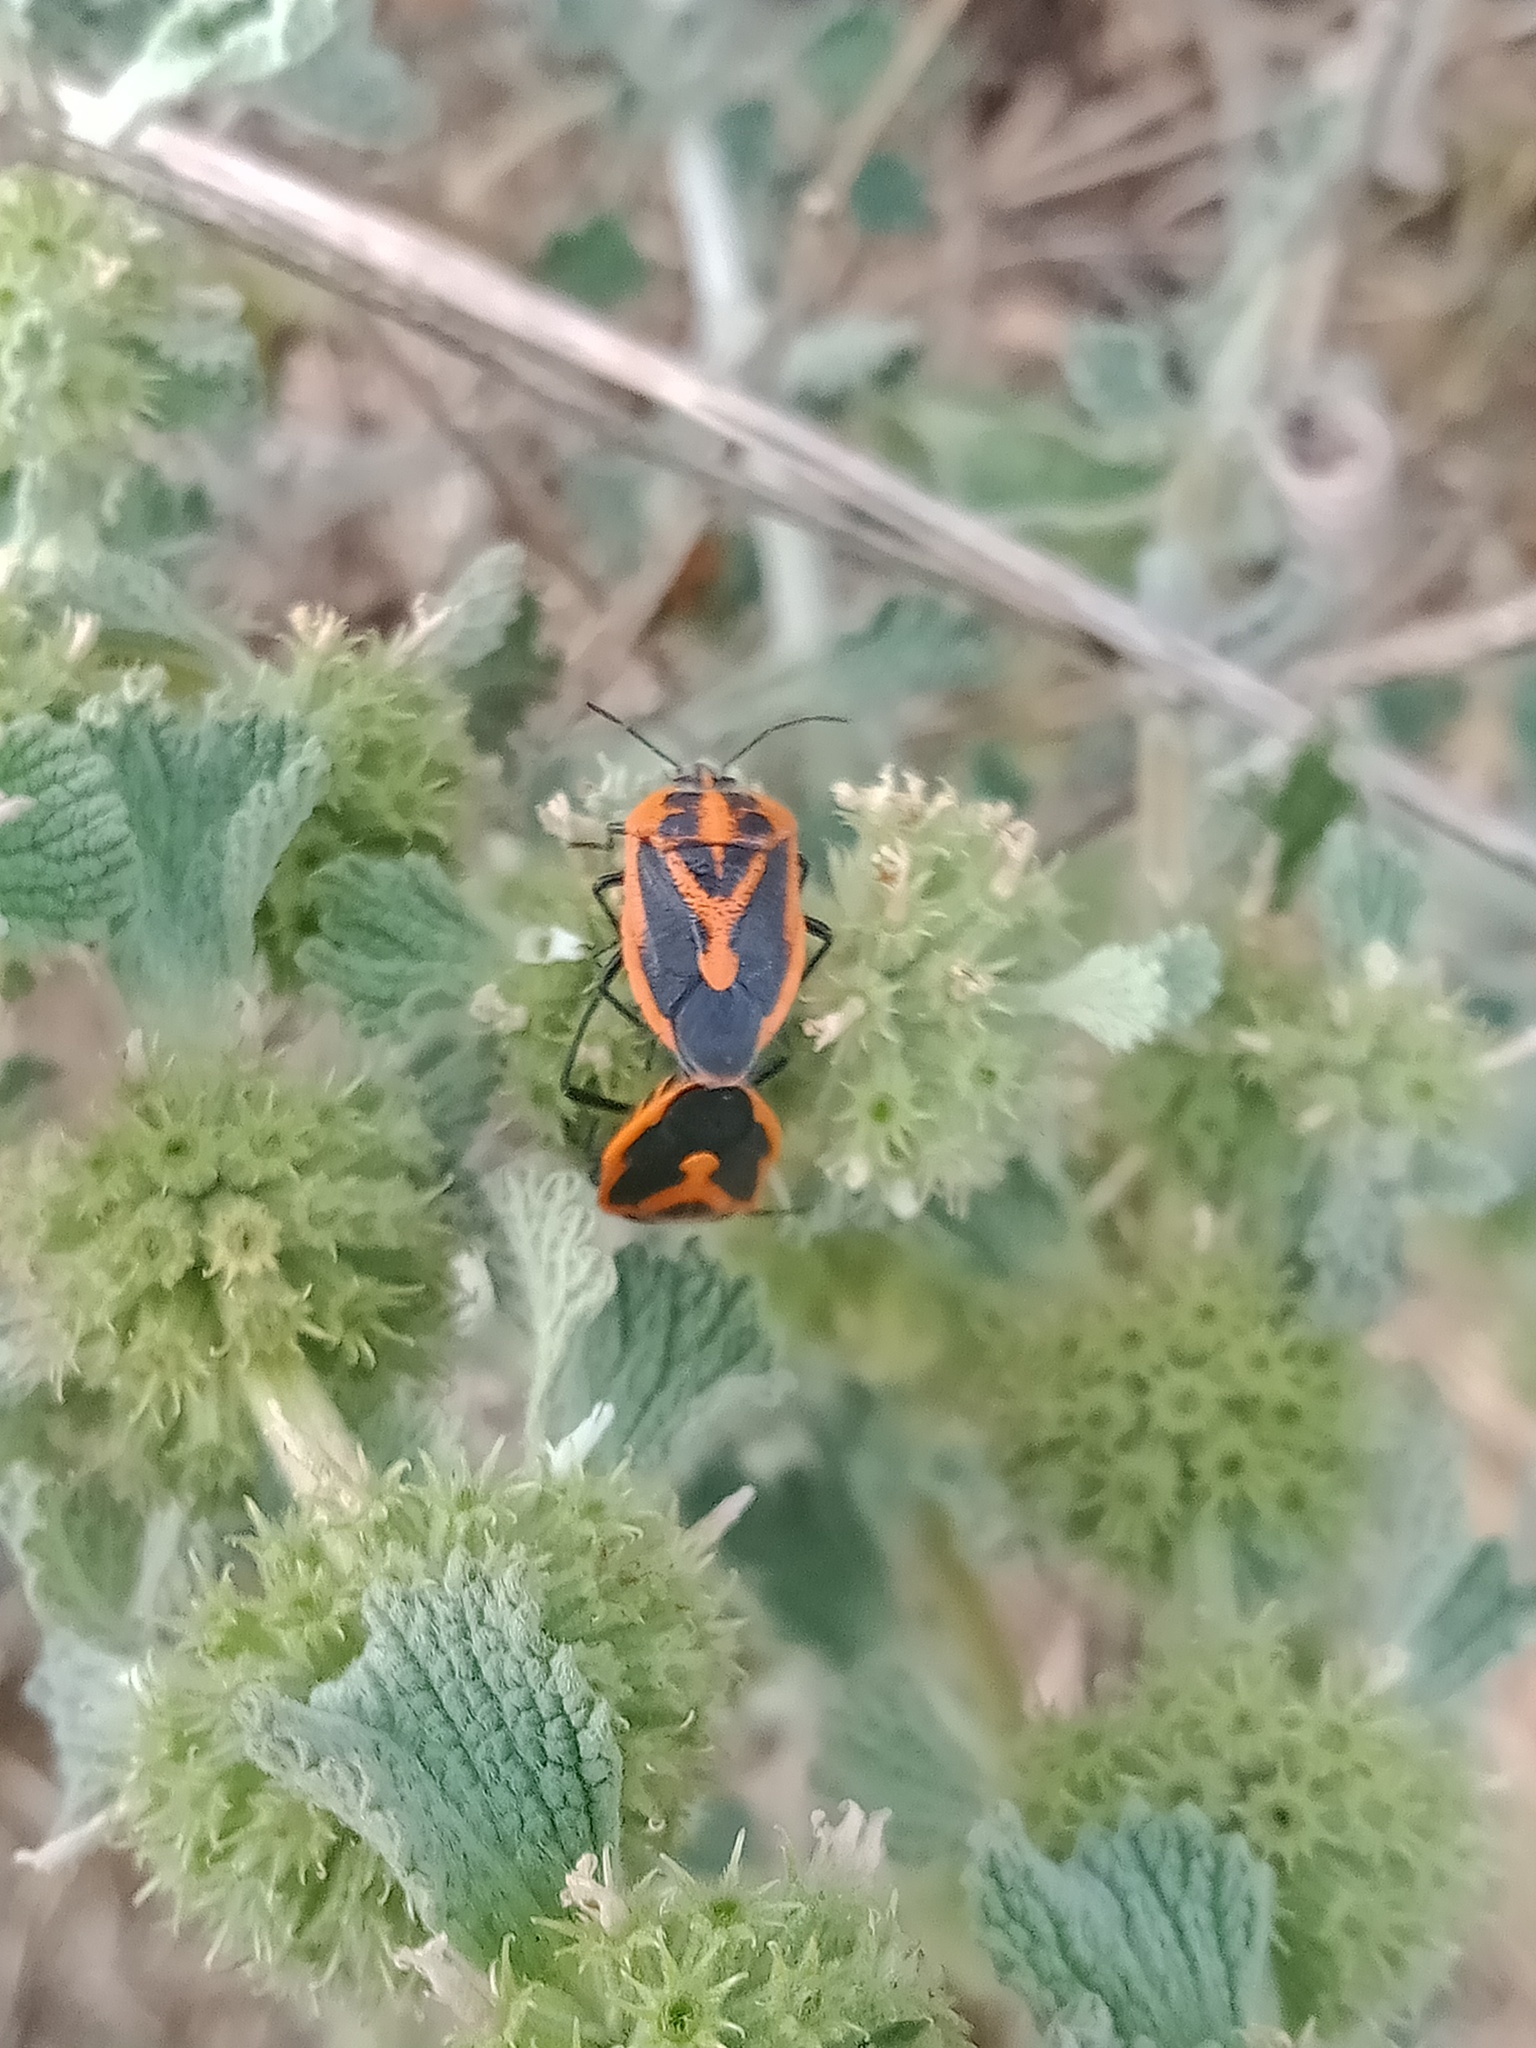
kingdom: Animalia
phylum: Arthropoda
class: Insecta
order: Hemiptera
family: Pentatomidae
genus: Agonoscelis
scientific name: Agonoscelis rutila
